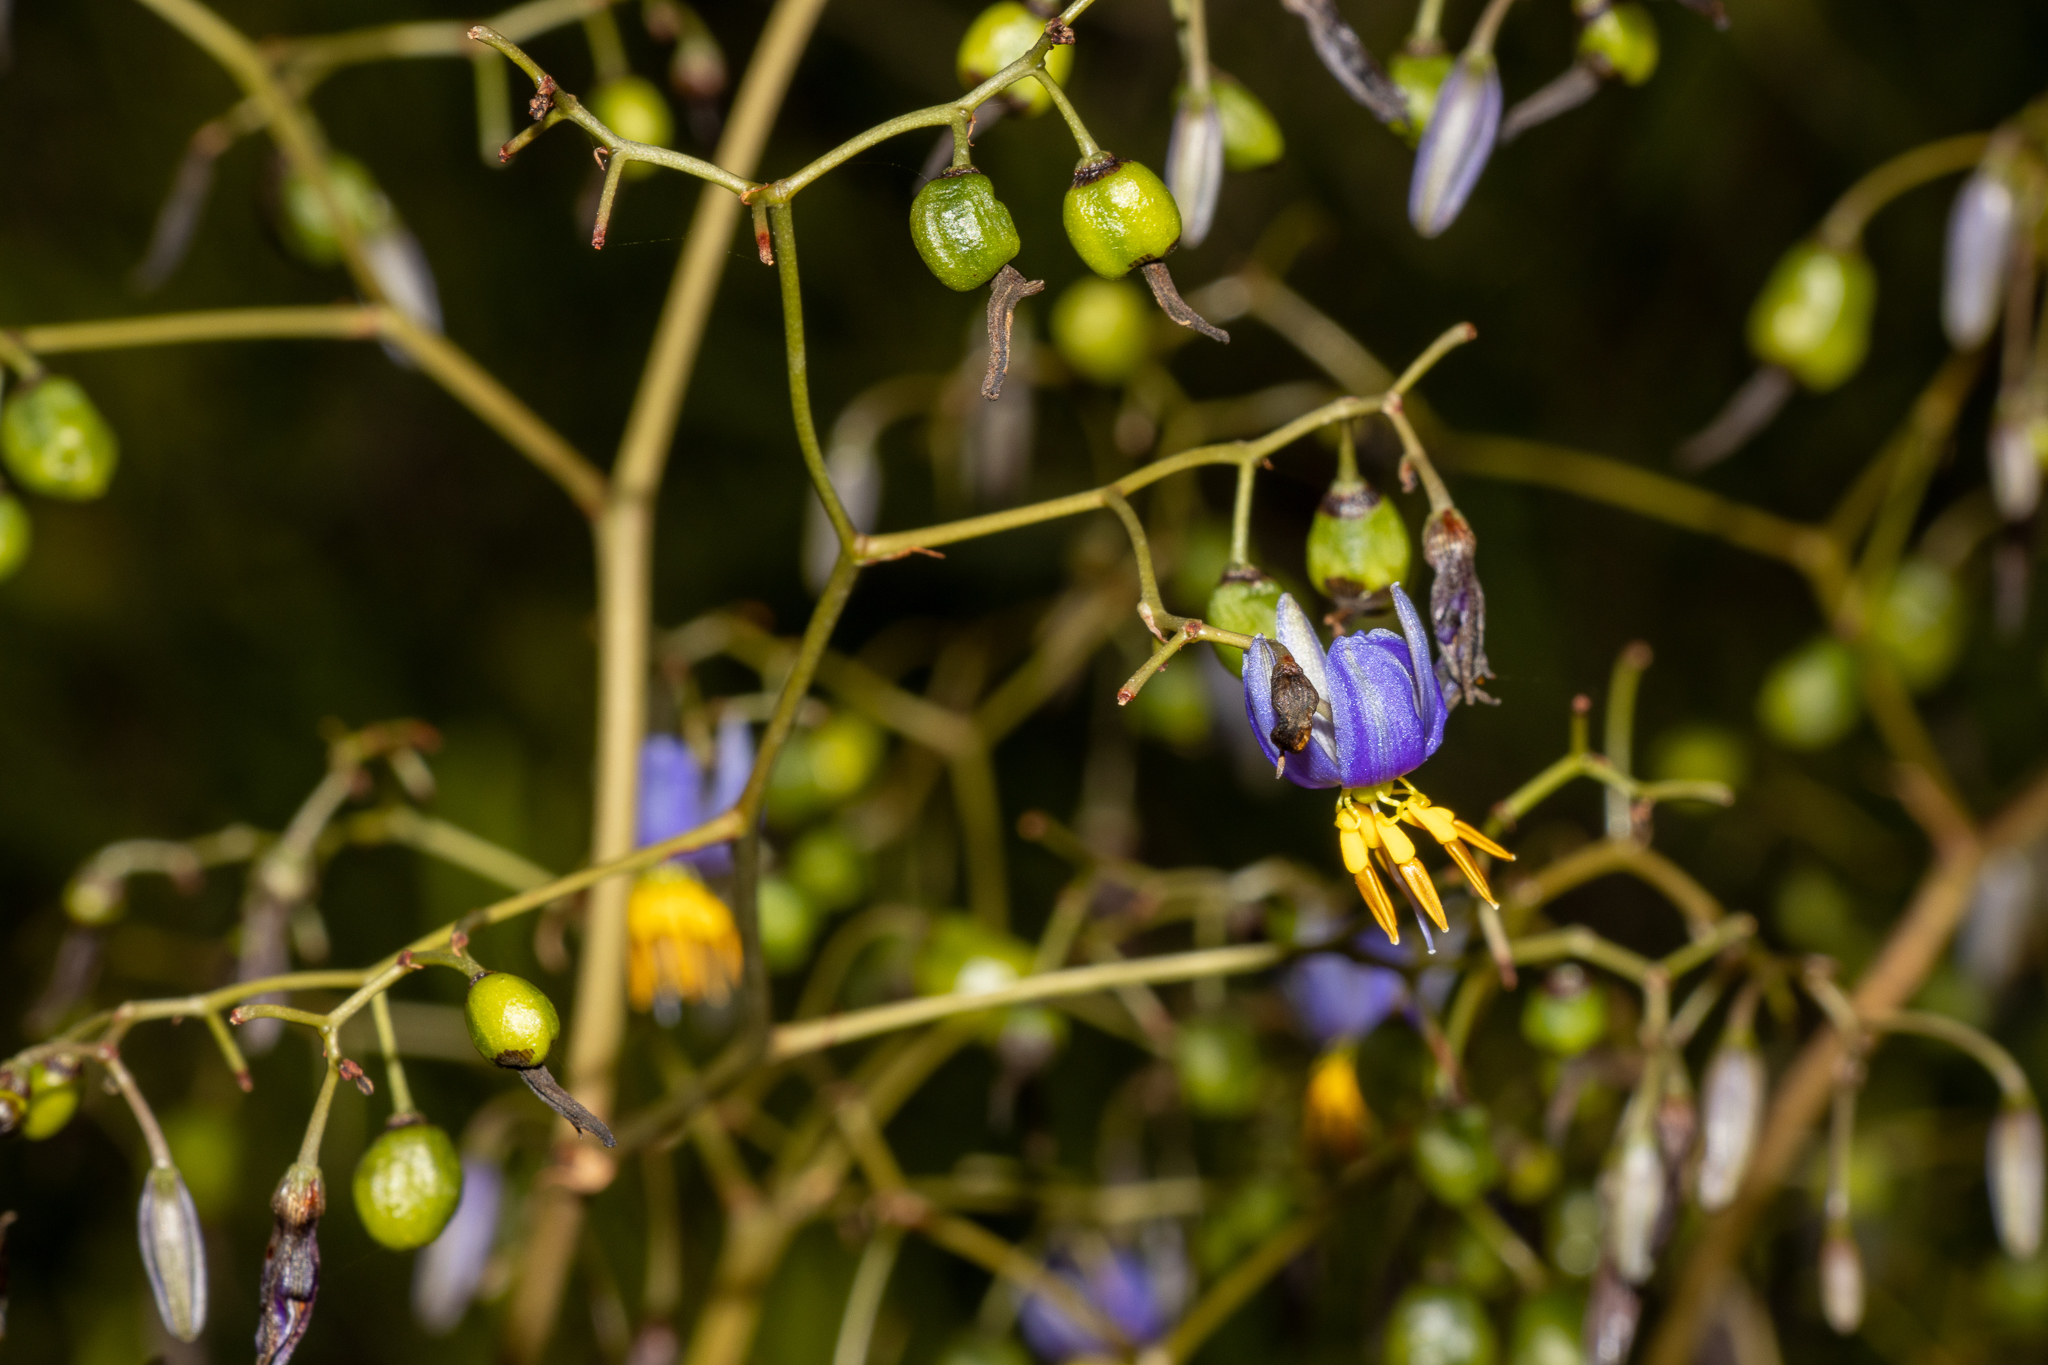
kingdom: Plantae
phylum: Tracheophyta
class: Liliopsida
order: Asparagales
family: Asphodelaceae
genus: Dianella
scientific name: Dianella revoluta
